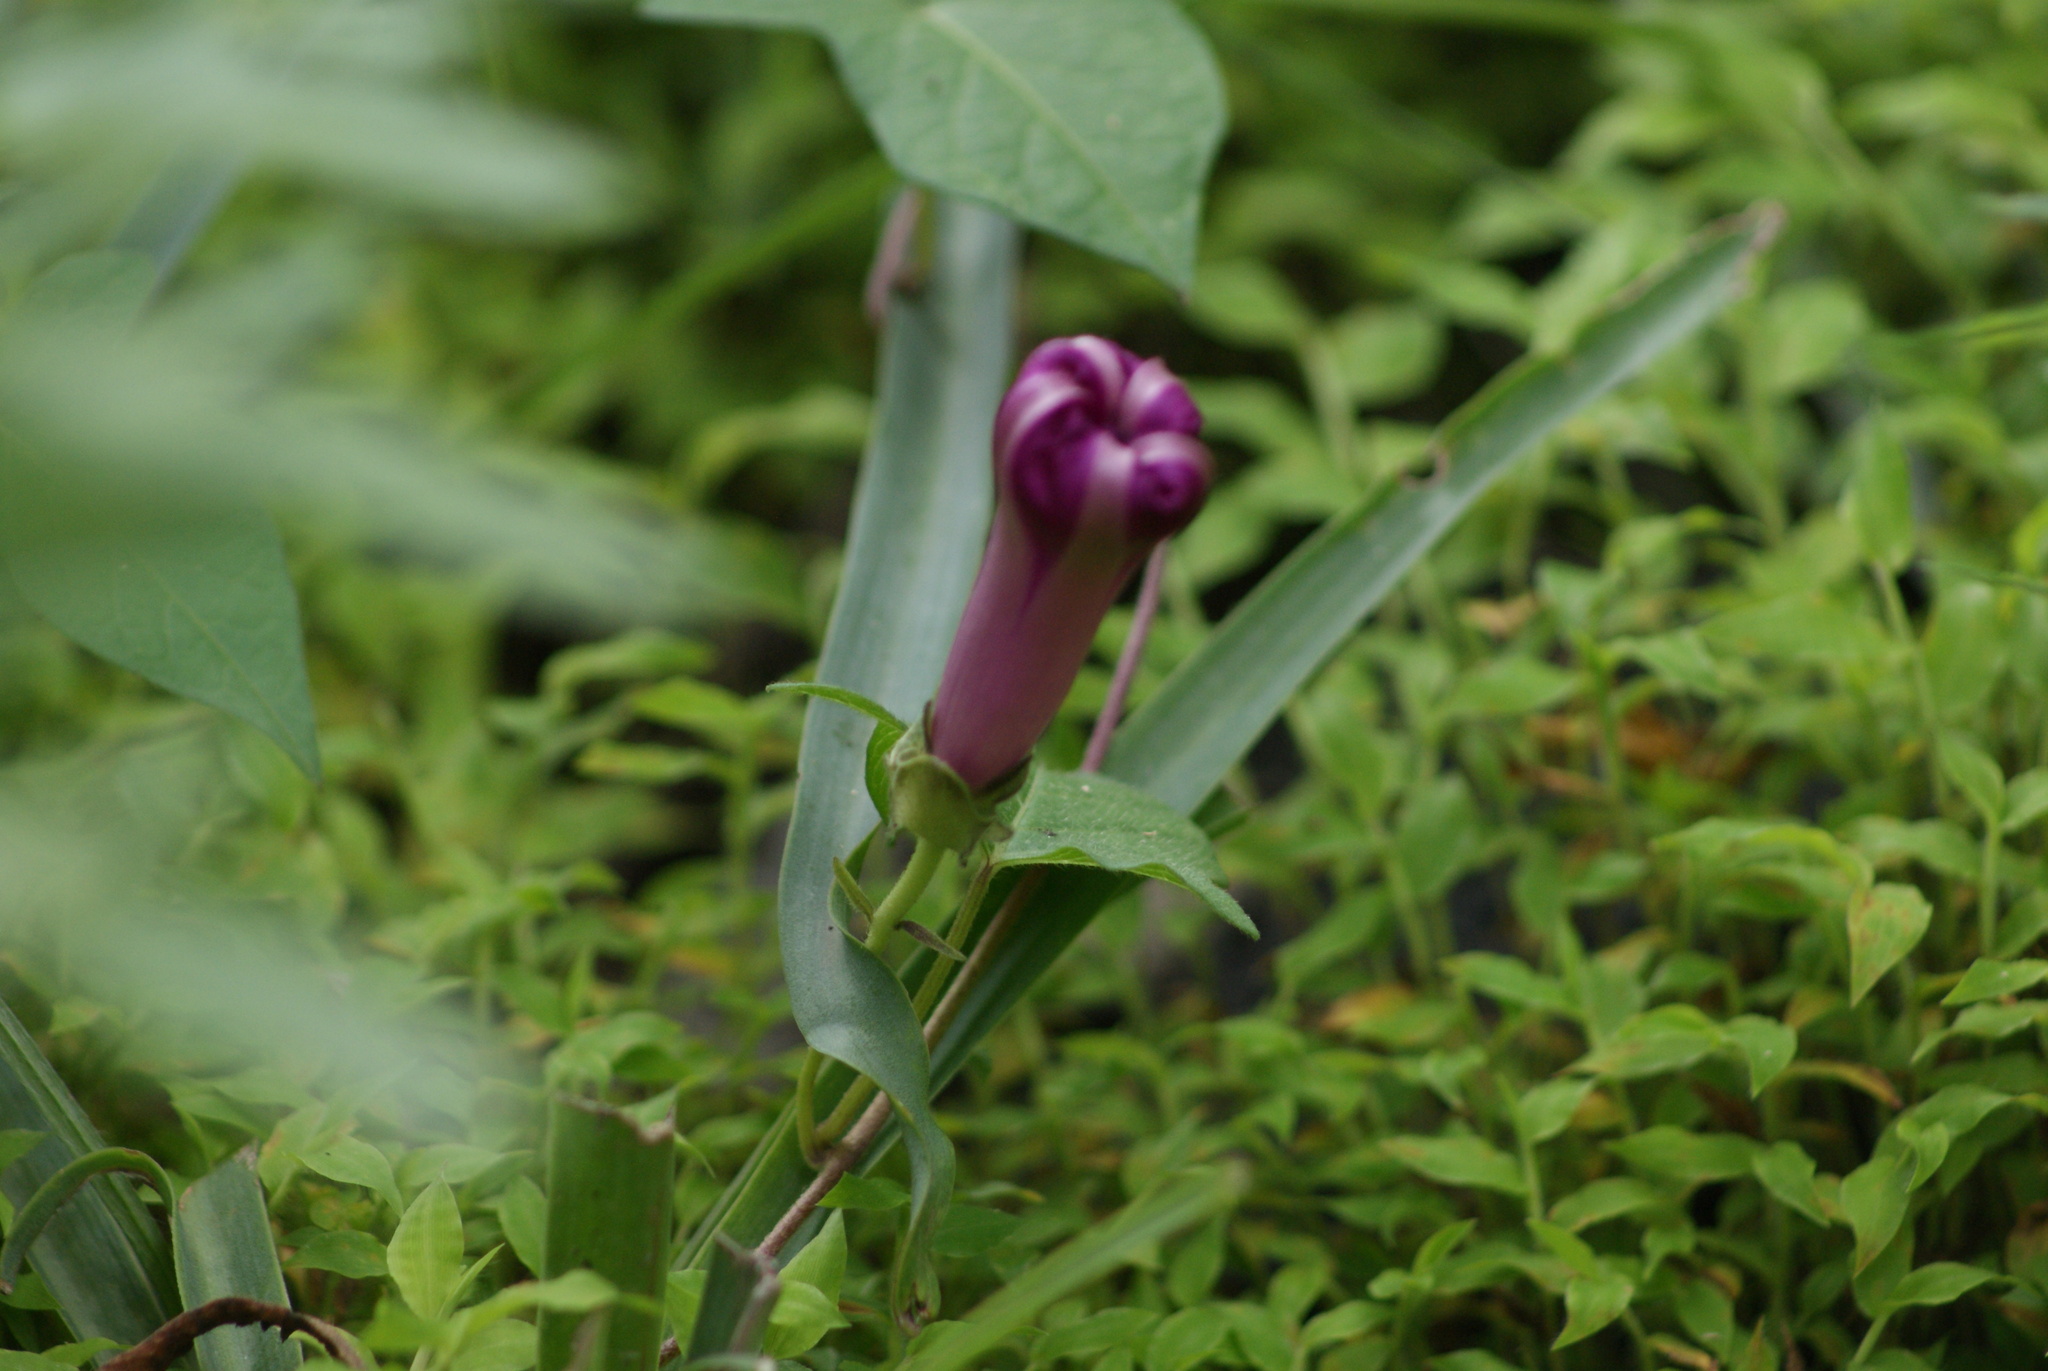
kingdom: Plantae
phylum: Tracheophyta
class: Magnoliopsida
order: Solanales
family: Convolvulaceae
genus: Ipomoea
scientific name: Ipomoea decasperma
